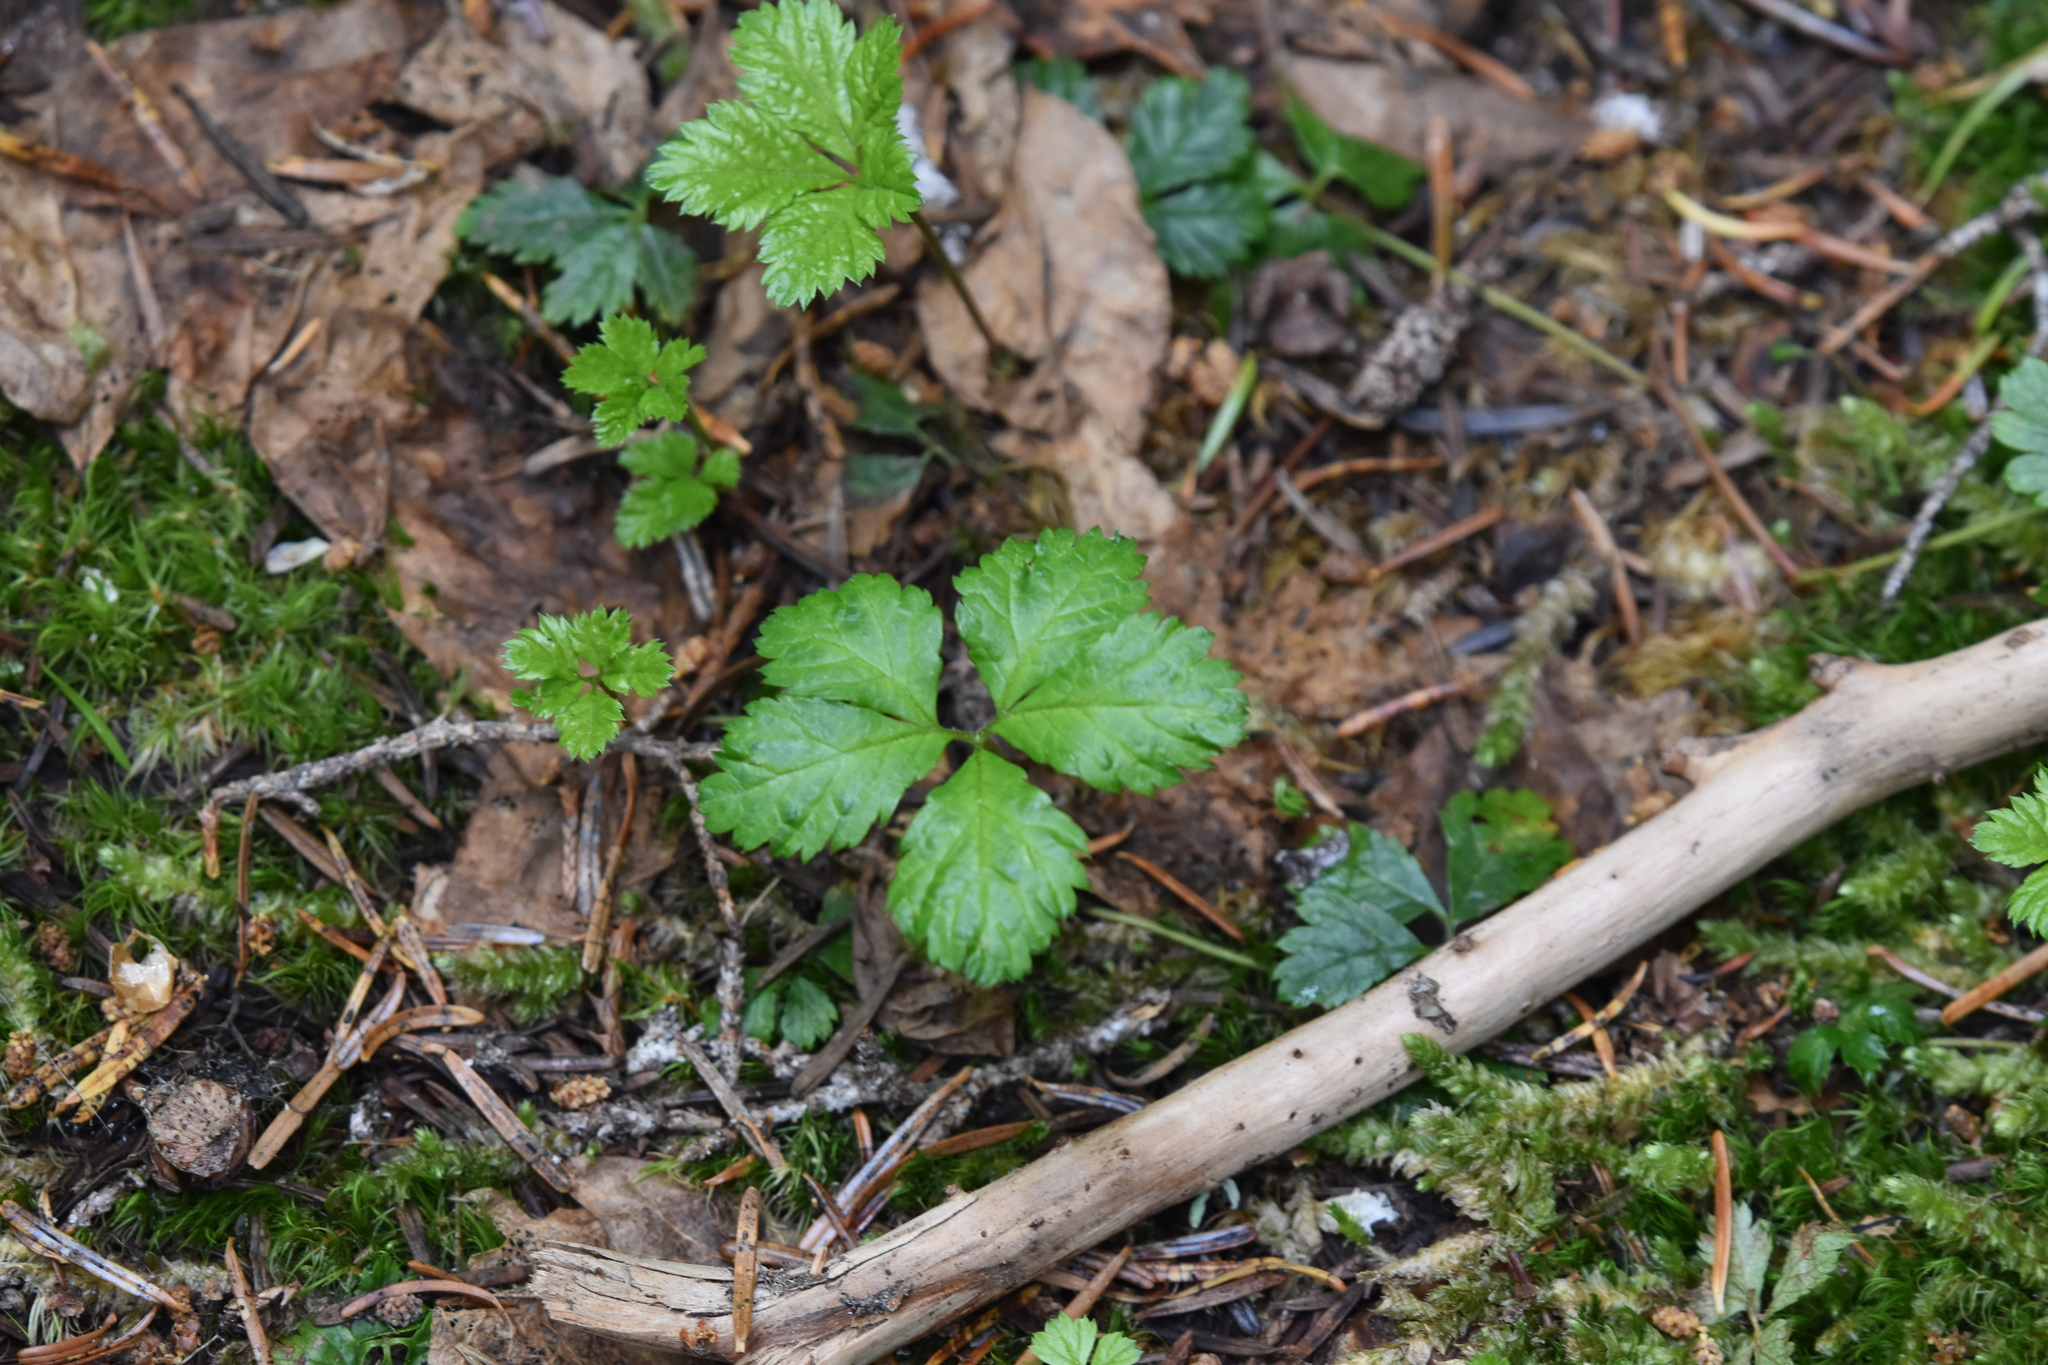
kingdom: Plantae
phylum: Tracheophyta
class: Magnoliopsida
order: Rosales
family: Rosaceae
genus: Rubus
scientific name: Rubus pedatus
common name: Creeping raspberry
